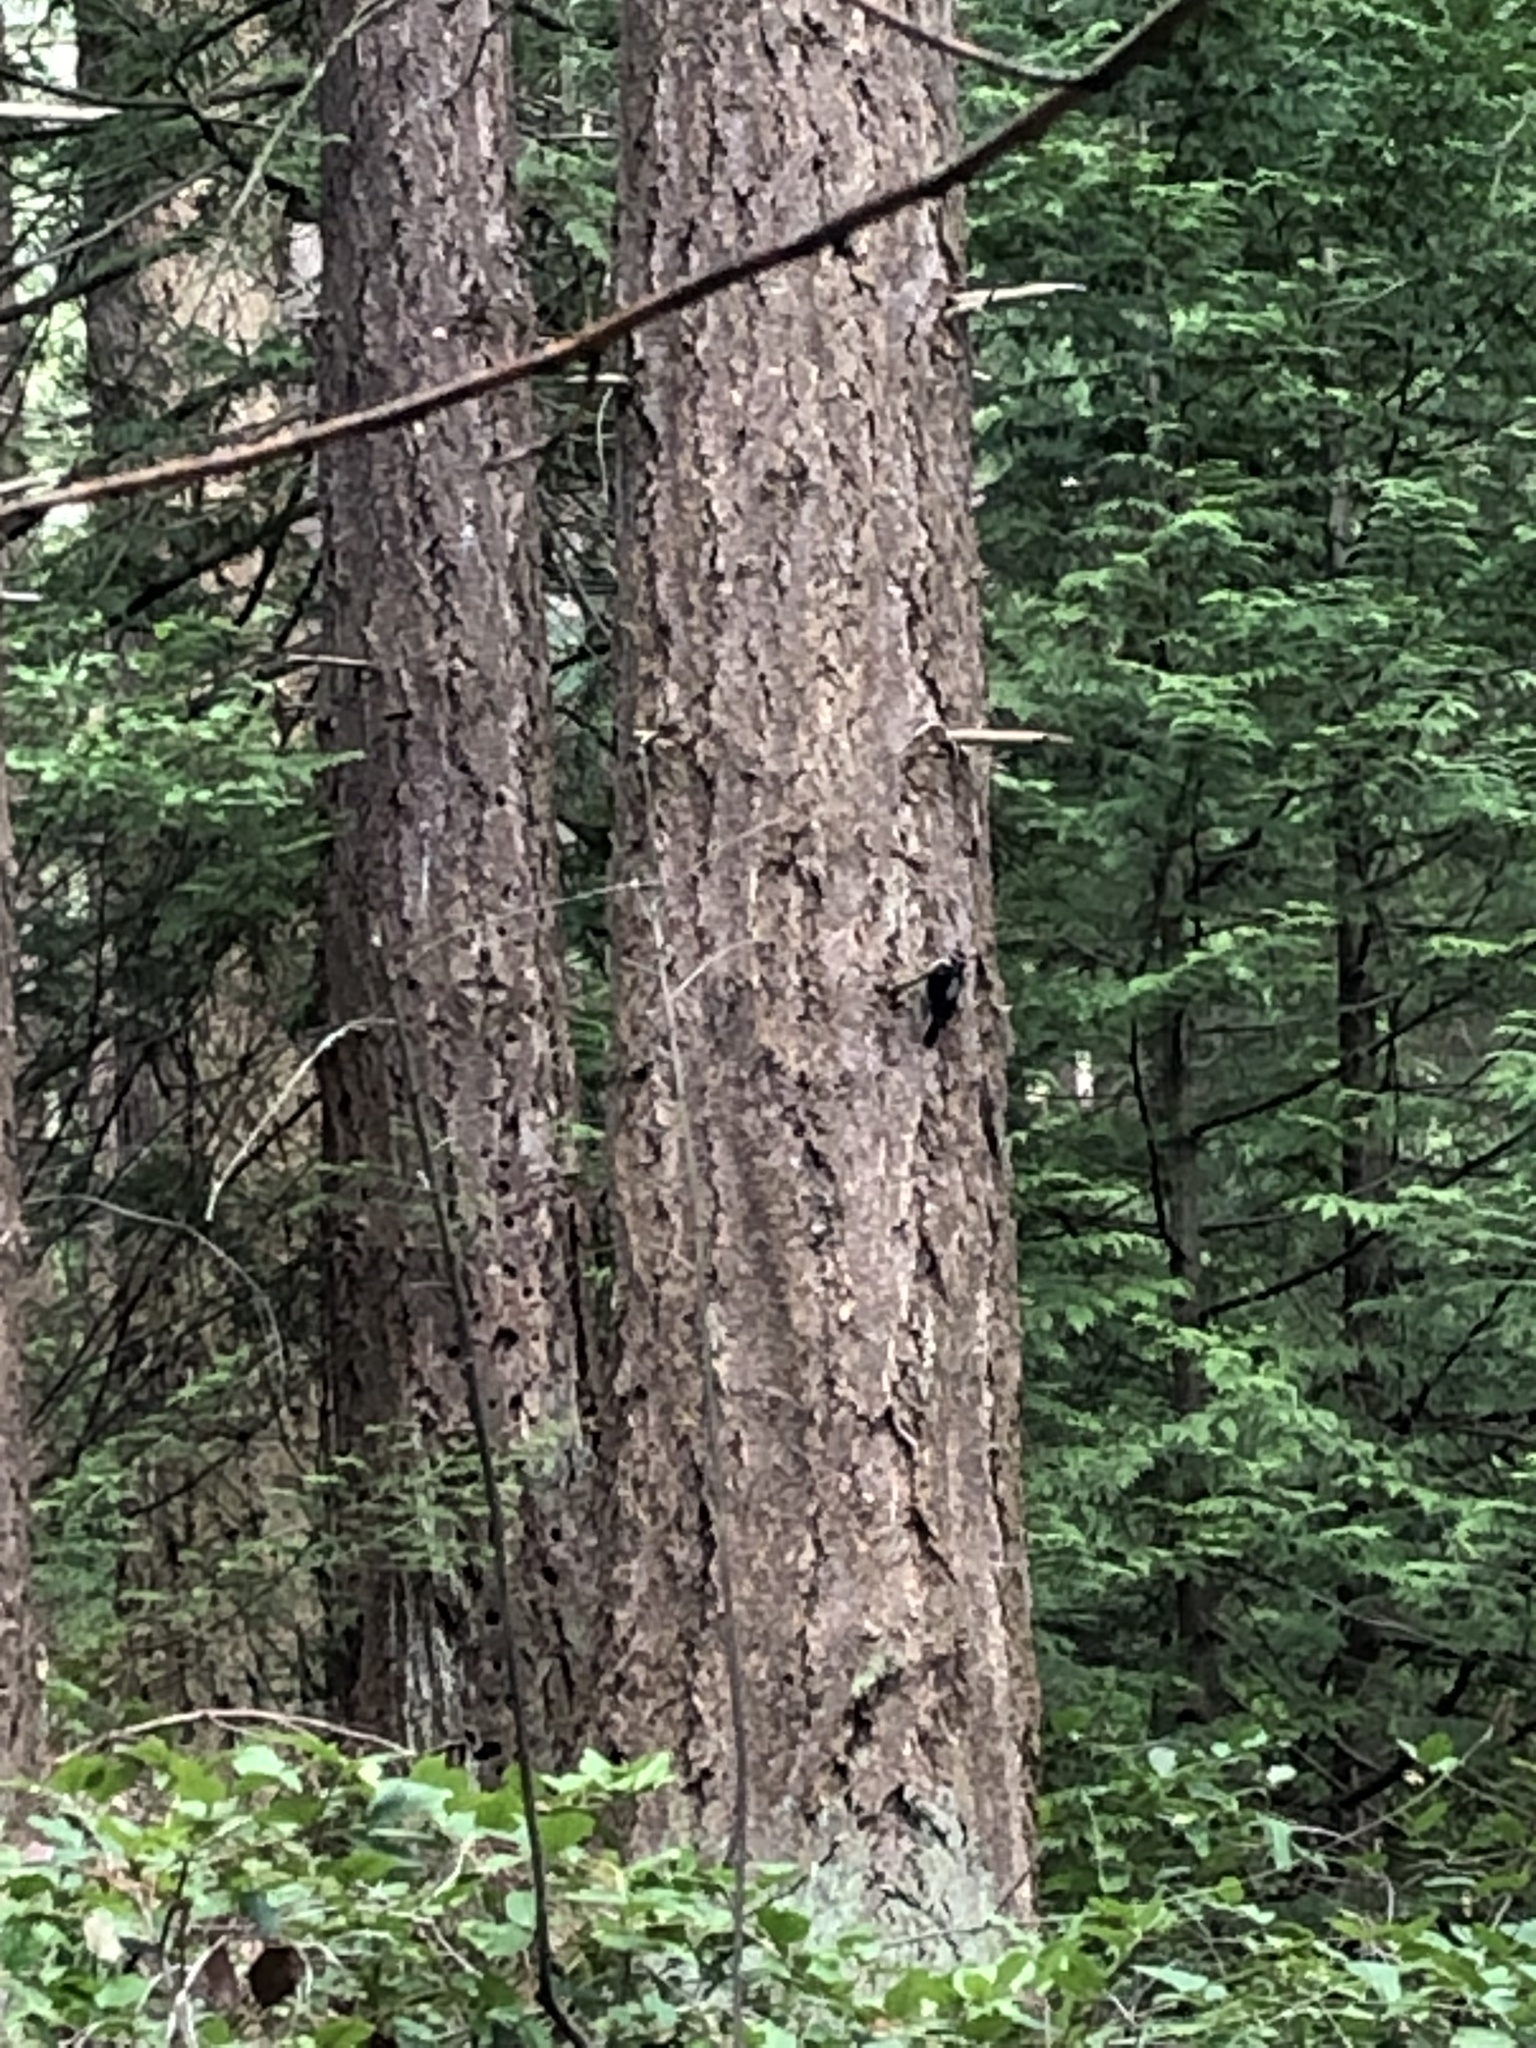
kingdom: Animalia
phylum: Chordata
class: Aves
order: Piciformes
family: Picidae
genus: Leuconotopicus
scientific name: Leuconotopicus villosus
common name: Hairy woodpecker
